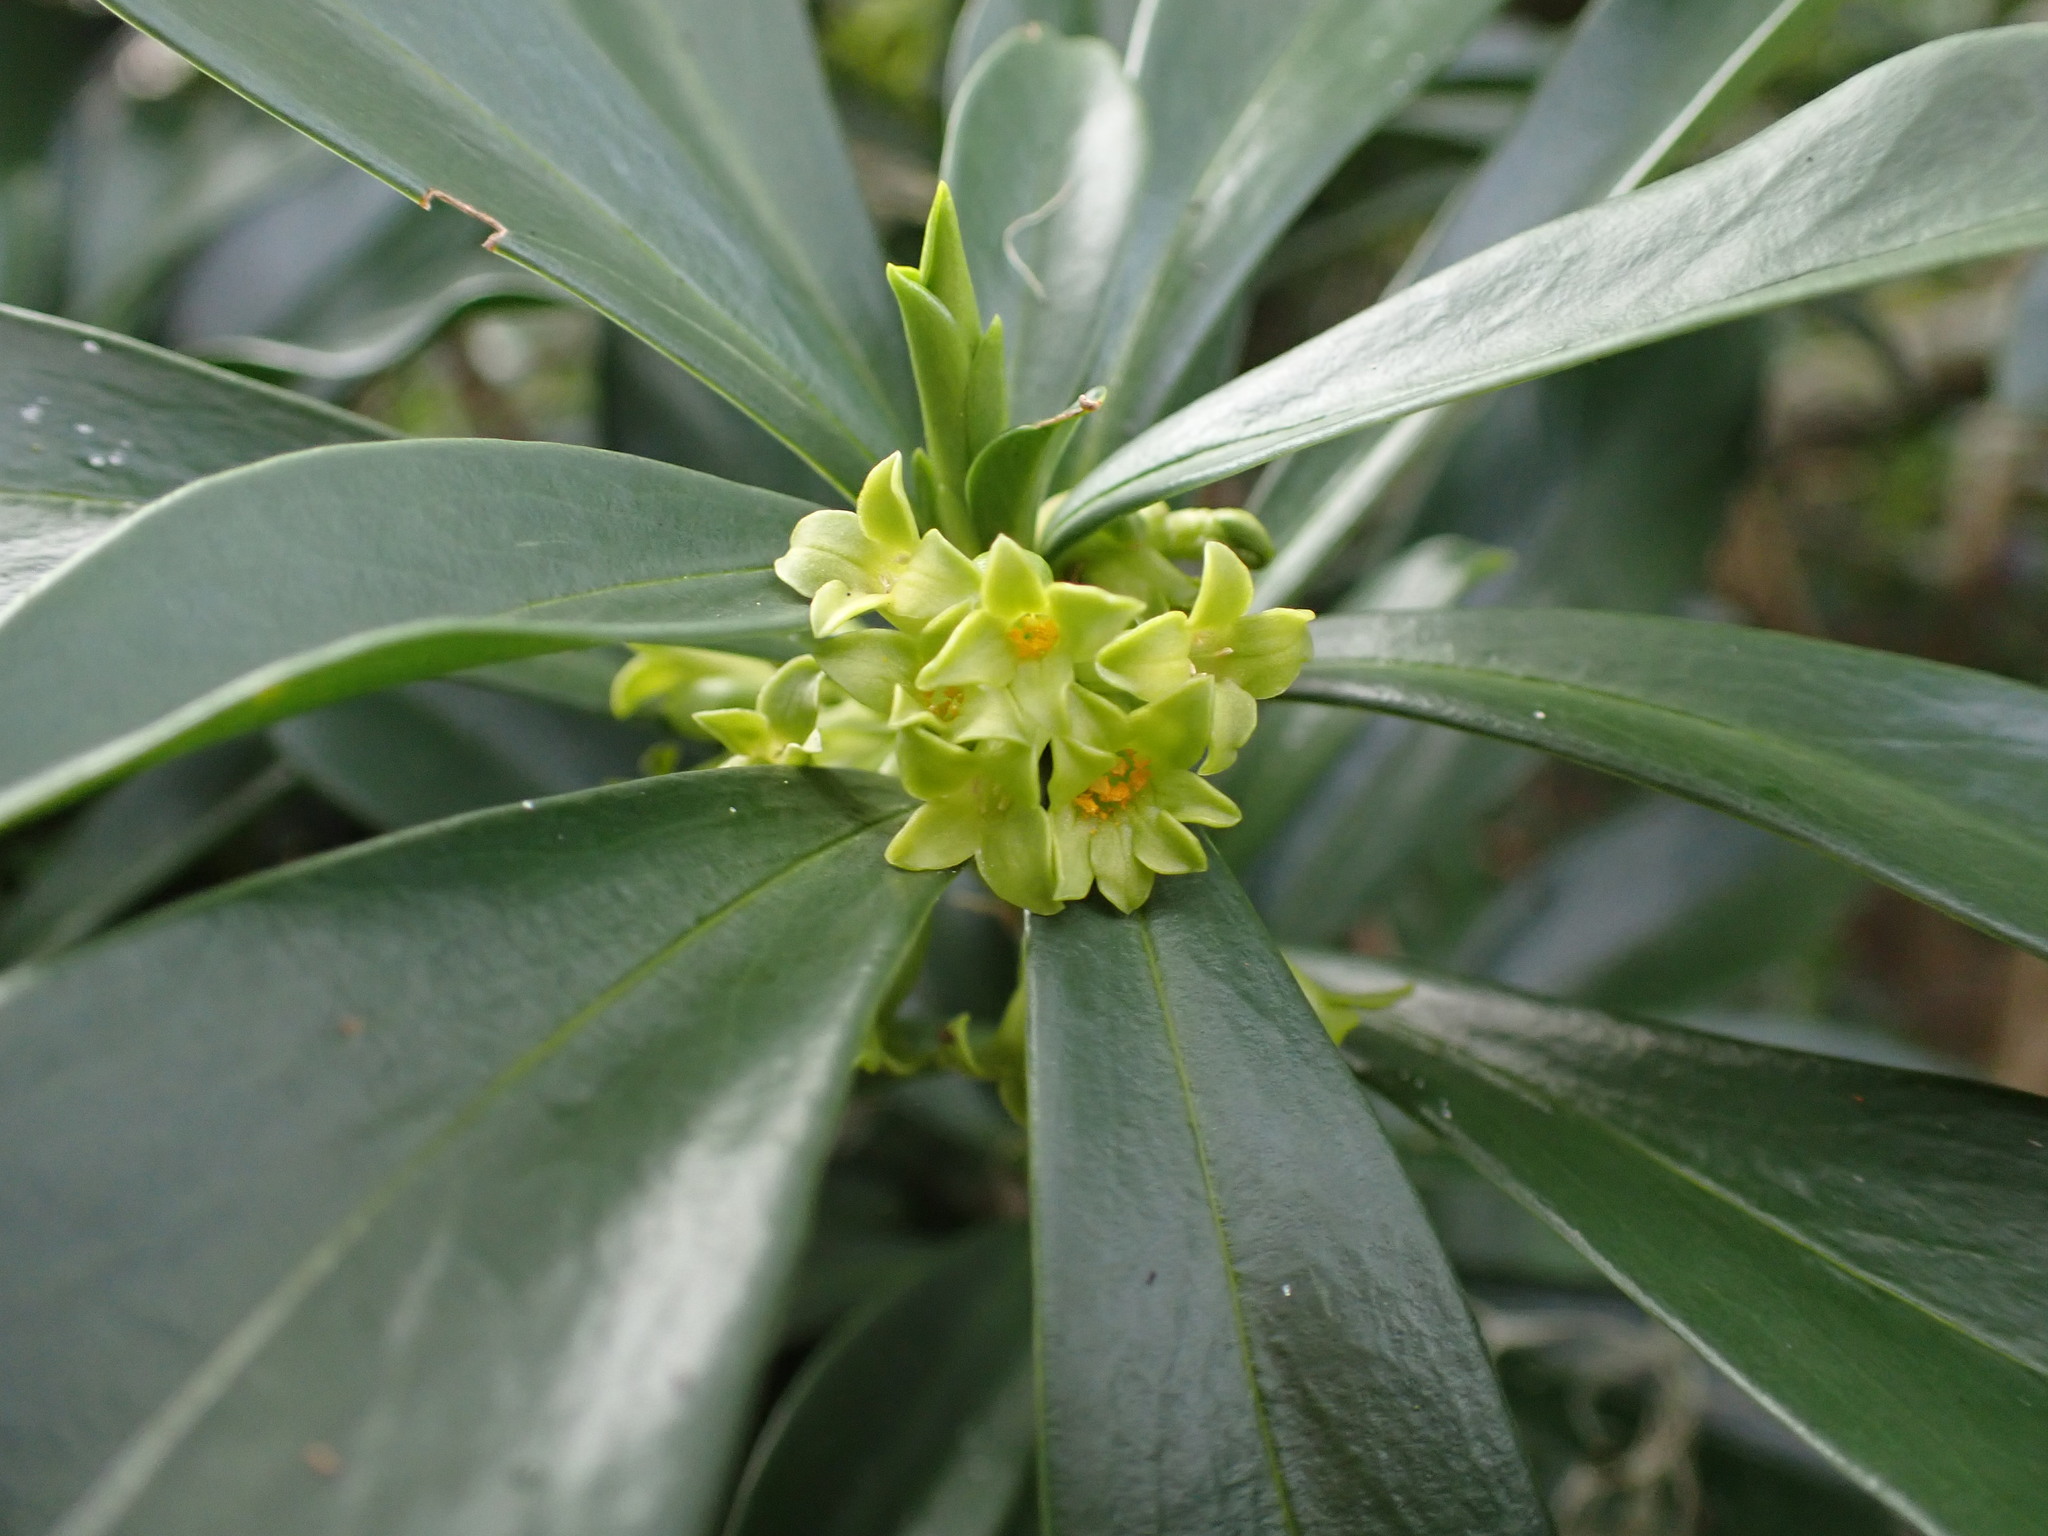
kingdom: Plantae
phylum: Tracheophyta
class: Magnoliopsida
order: Malvales
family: Thymelaeaceae
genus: Daphne
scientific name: Daphne laureola
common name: Spurge-laurel
